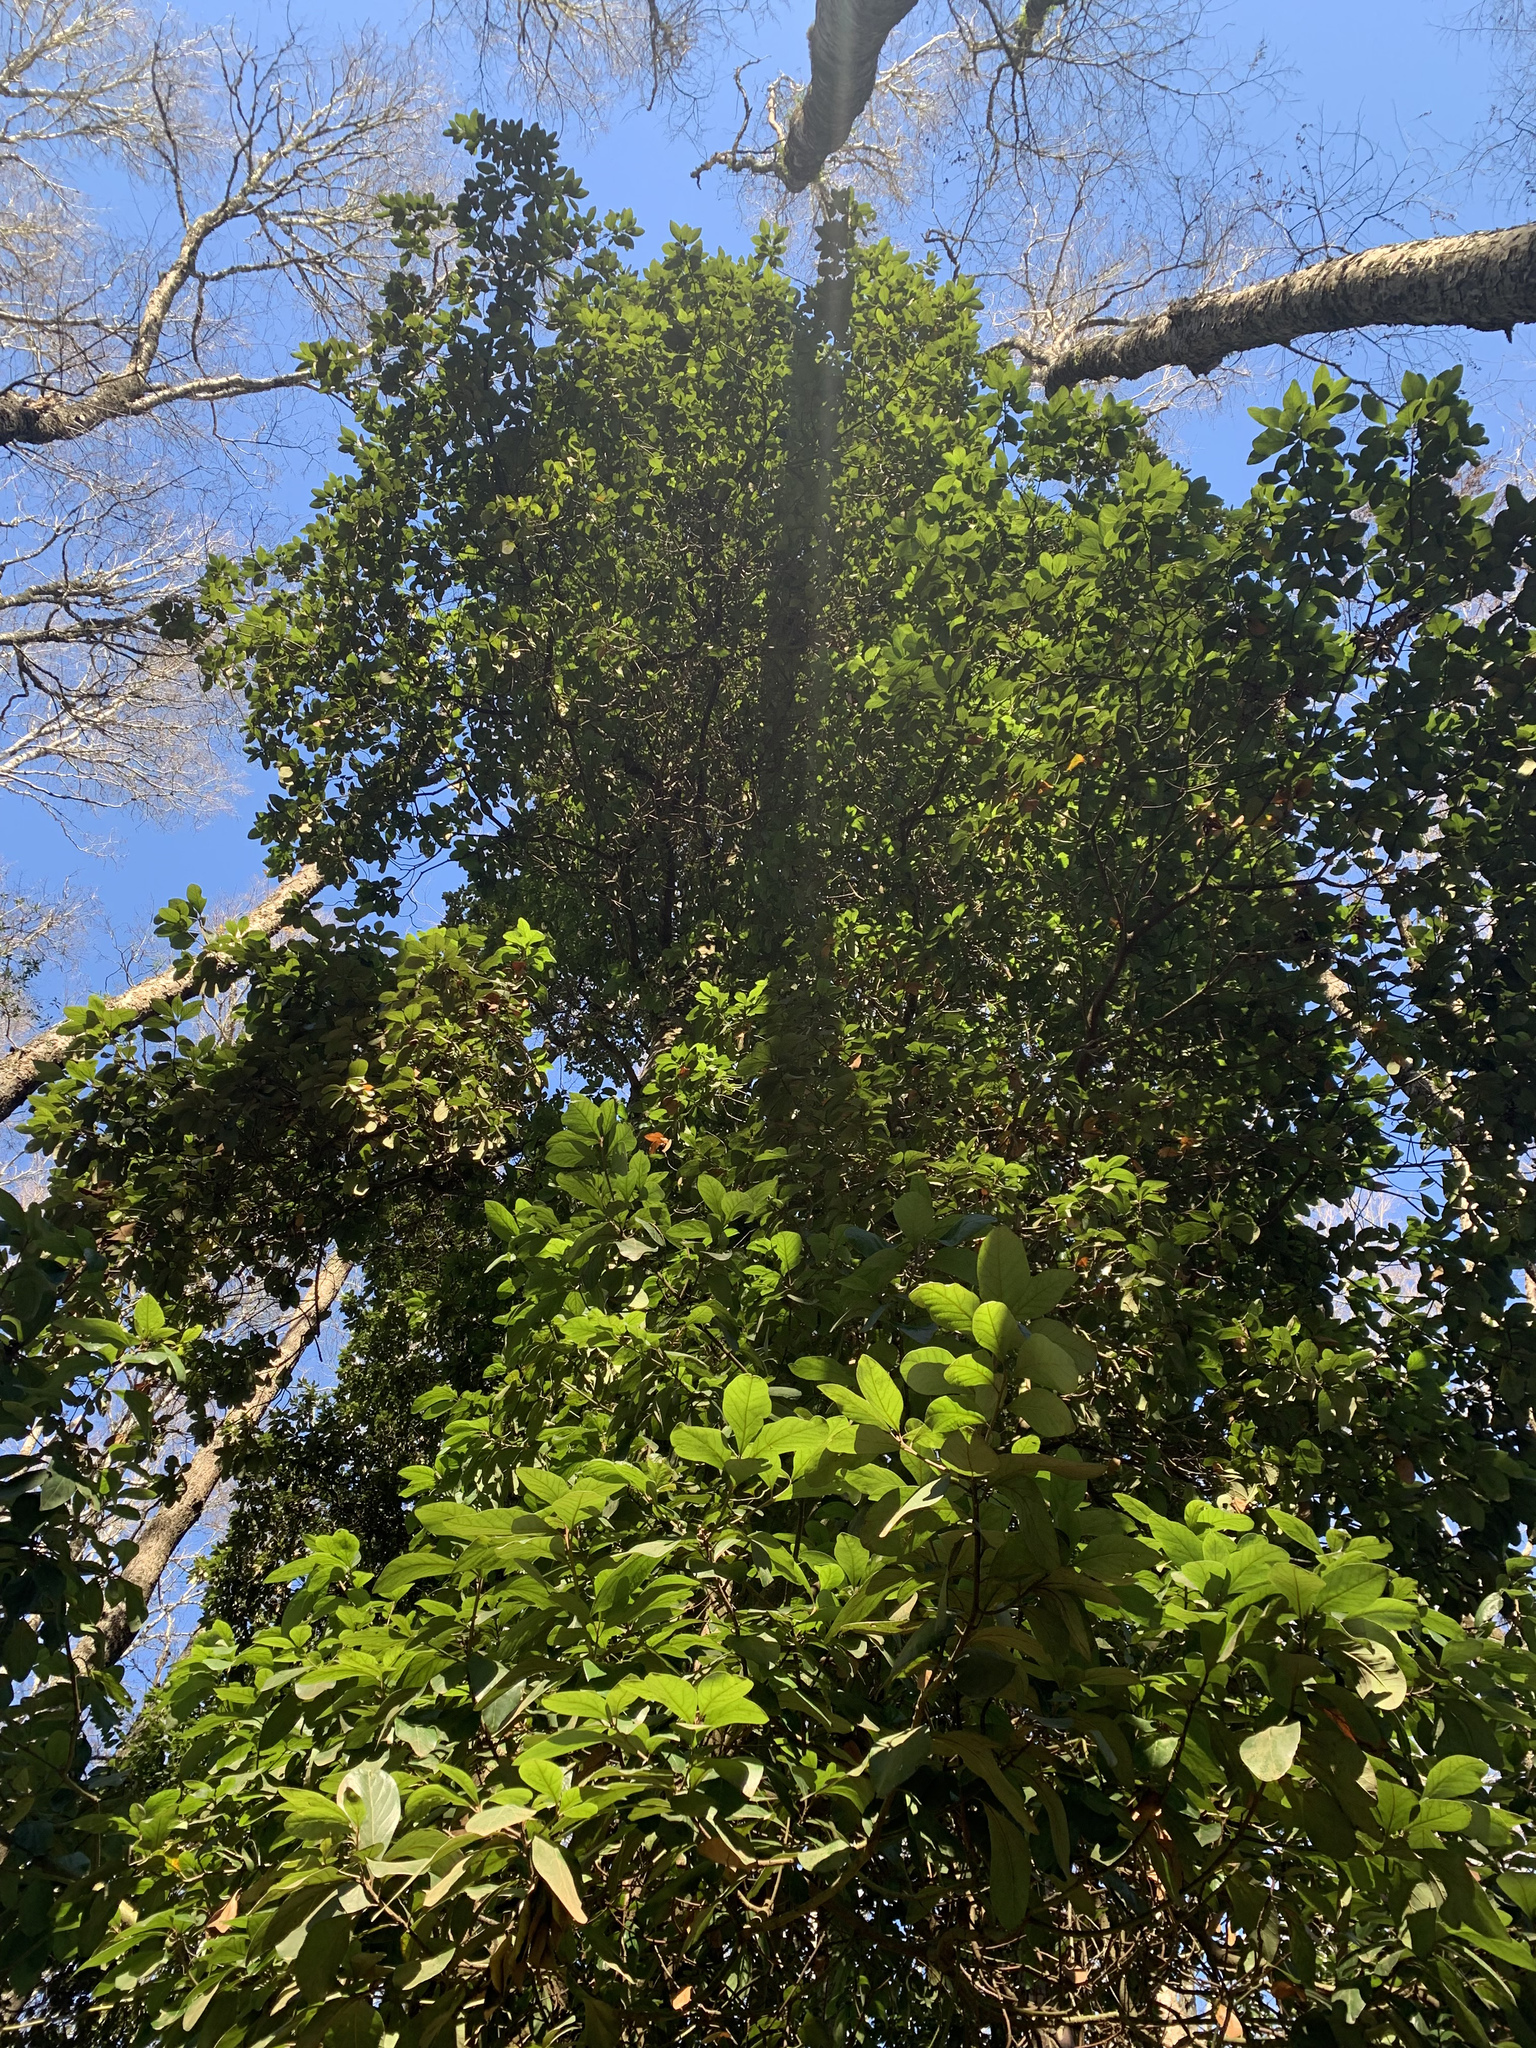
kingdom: Plantae
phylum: Tracheophyta
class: Magnoliopsida
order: Laurales
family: Lauraceae
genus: Persea
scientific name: Persea lingue
